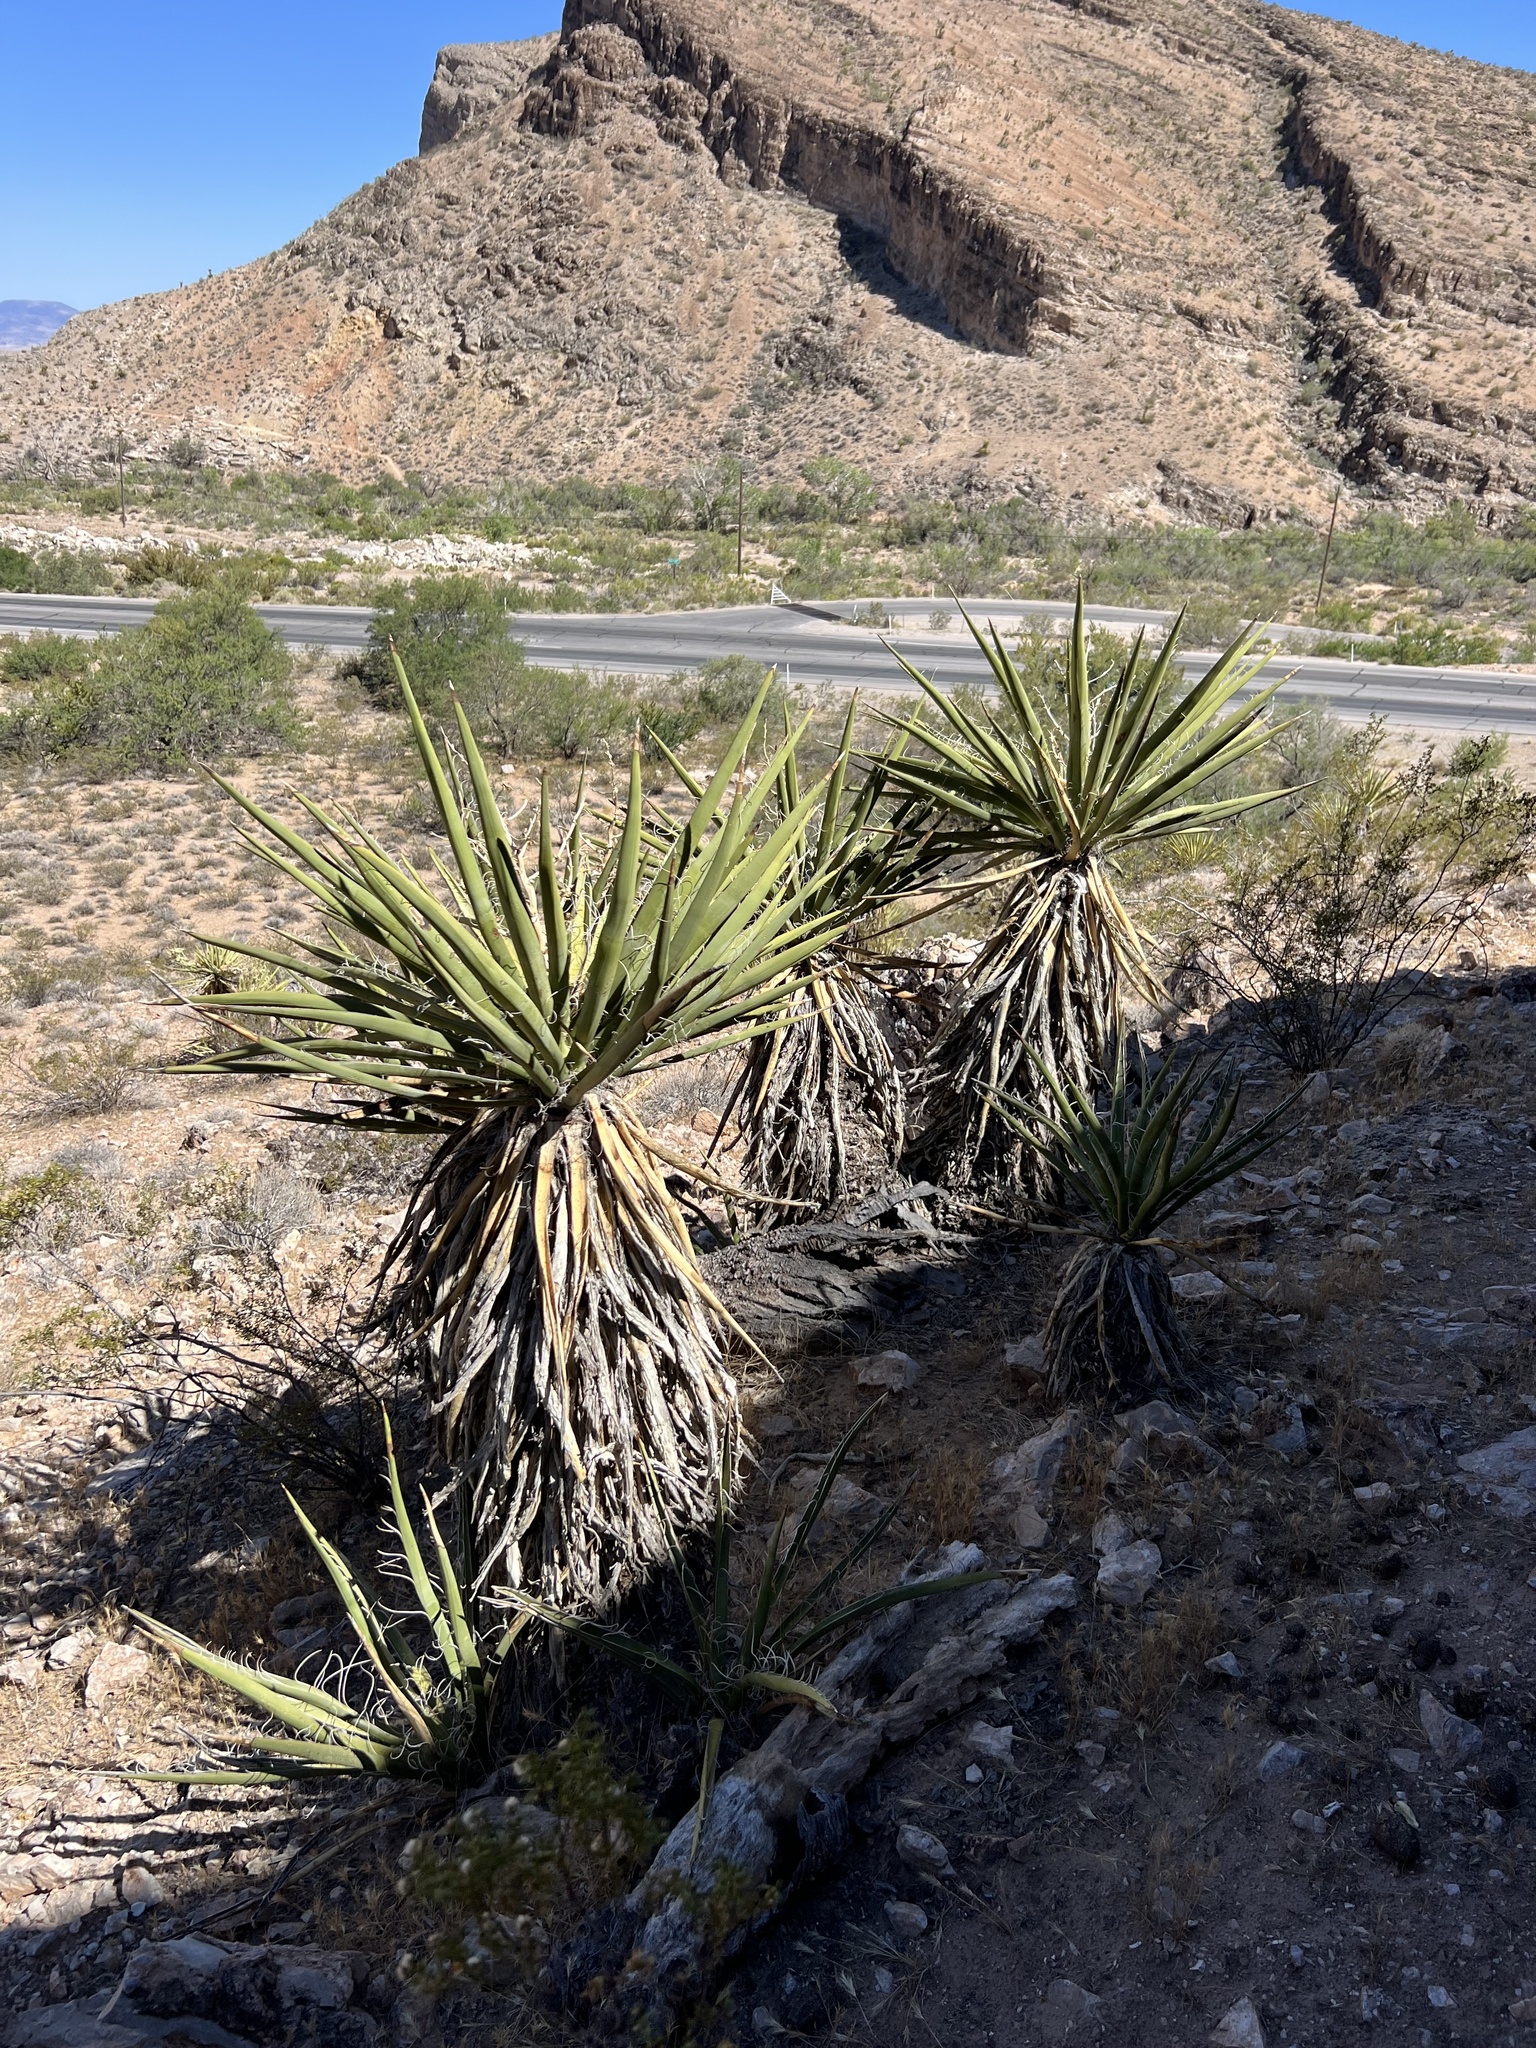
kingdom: Plantae
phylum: Tracheophyta
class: Liliopsida
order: Asparagales
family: Asparagaceae
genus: Yucca
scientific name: Yucca schidigera
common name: Mojave yucca
